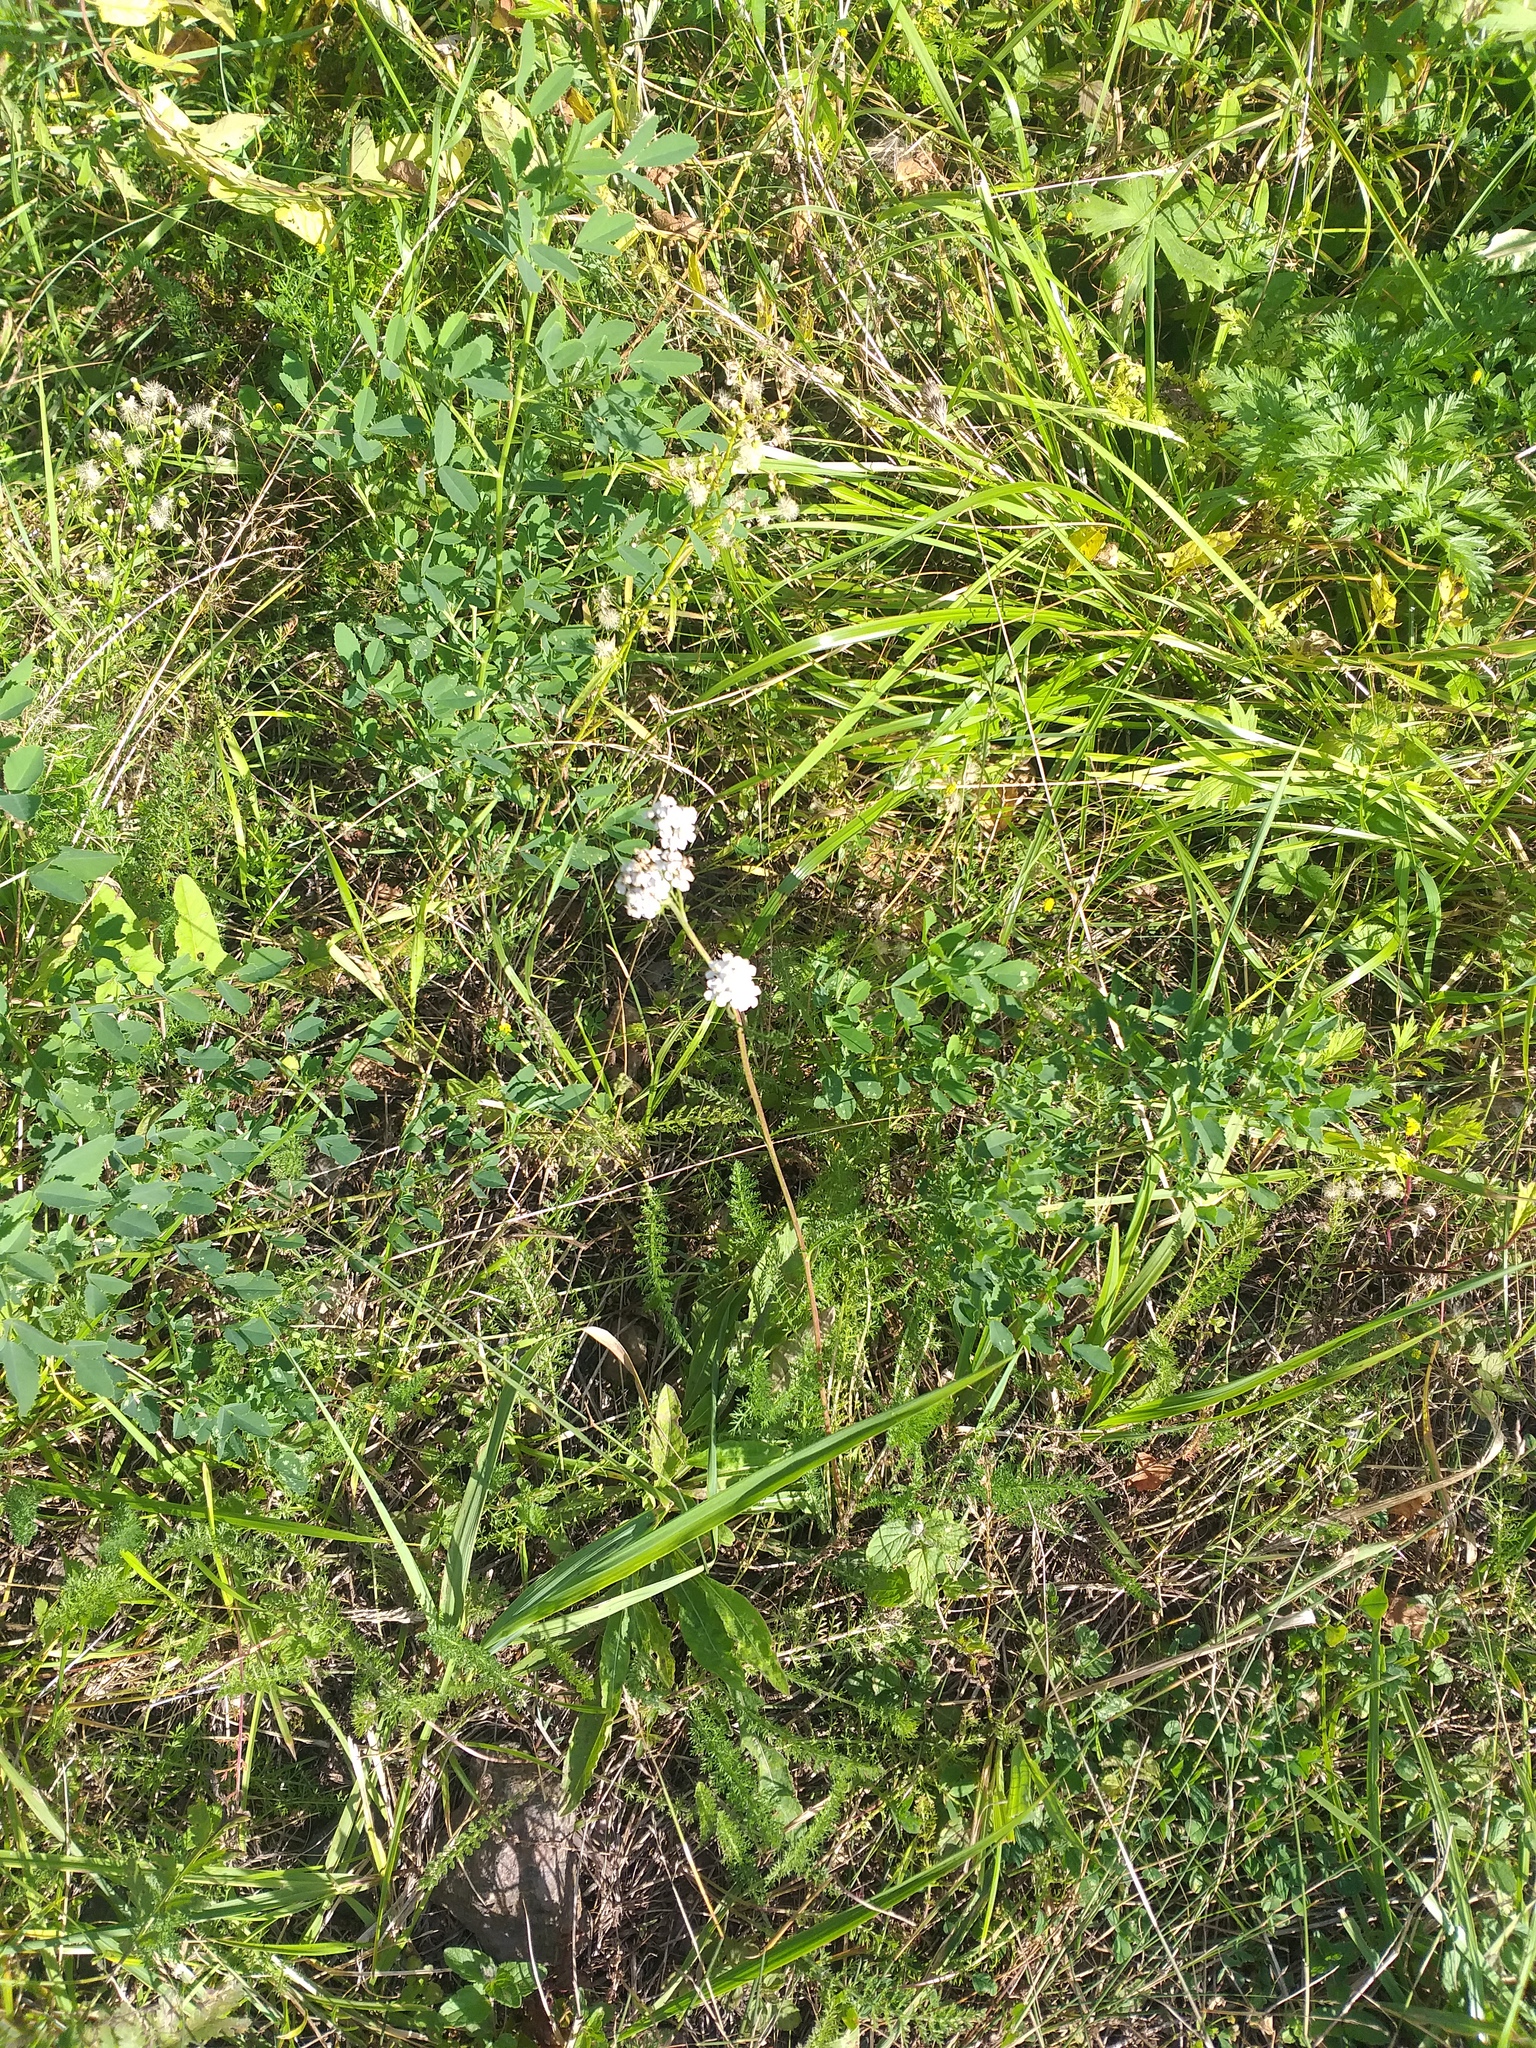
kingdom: Plantae
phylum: Tracheophyta
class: Magnoliopsida
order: Asterales
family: Asteraceae
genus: Achillea
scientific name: Achillea millefolium
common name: Yarrow
